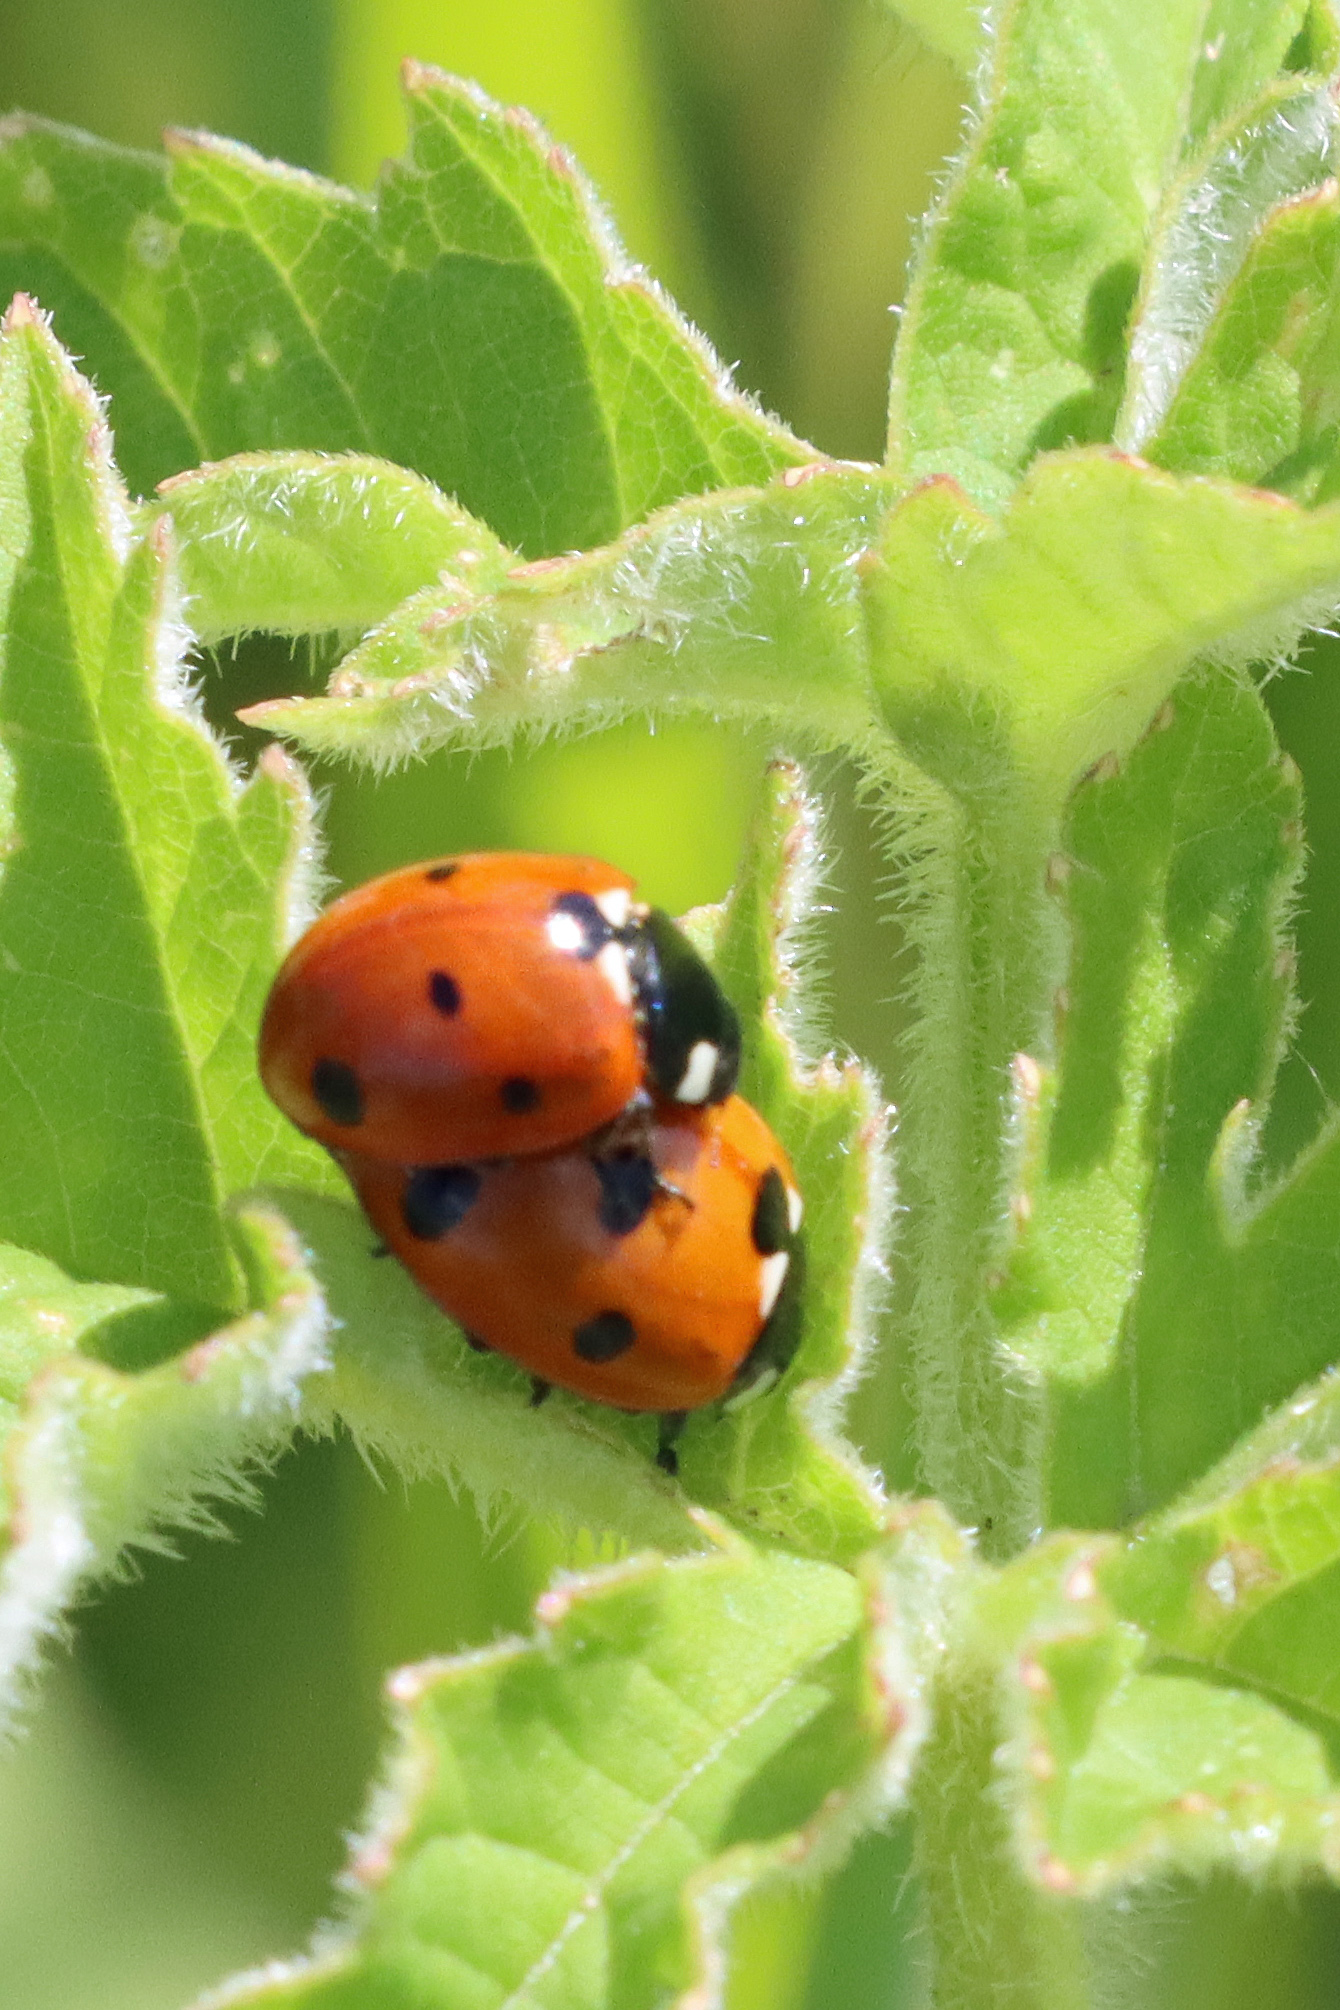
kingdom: Animalia
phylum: Arthropoda
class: Insecta
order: Coleoptera
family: Coccinellidae
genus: Coccinella
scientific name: Coccinella septempunctata
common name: Sevenspotted lady beetle
